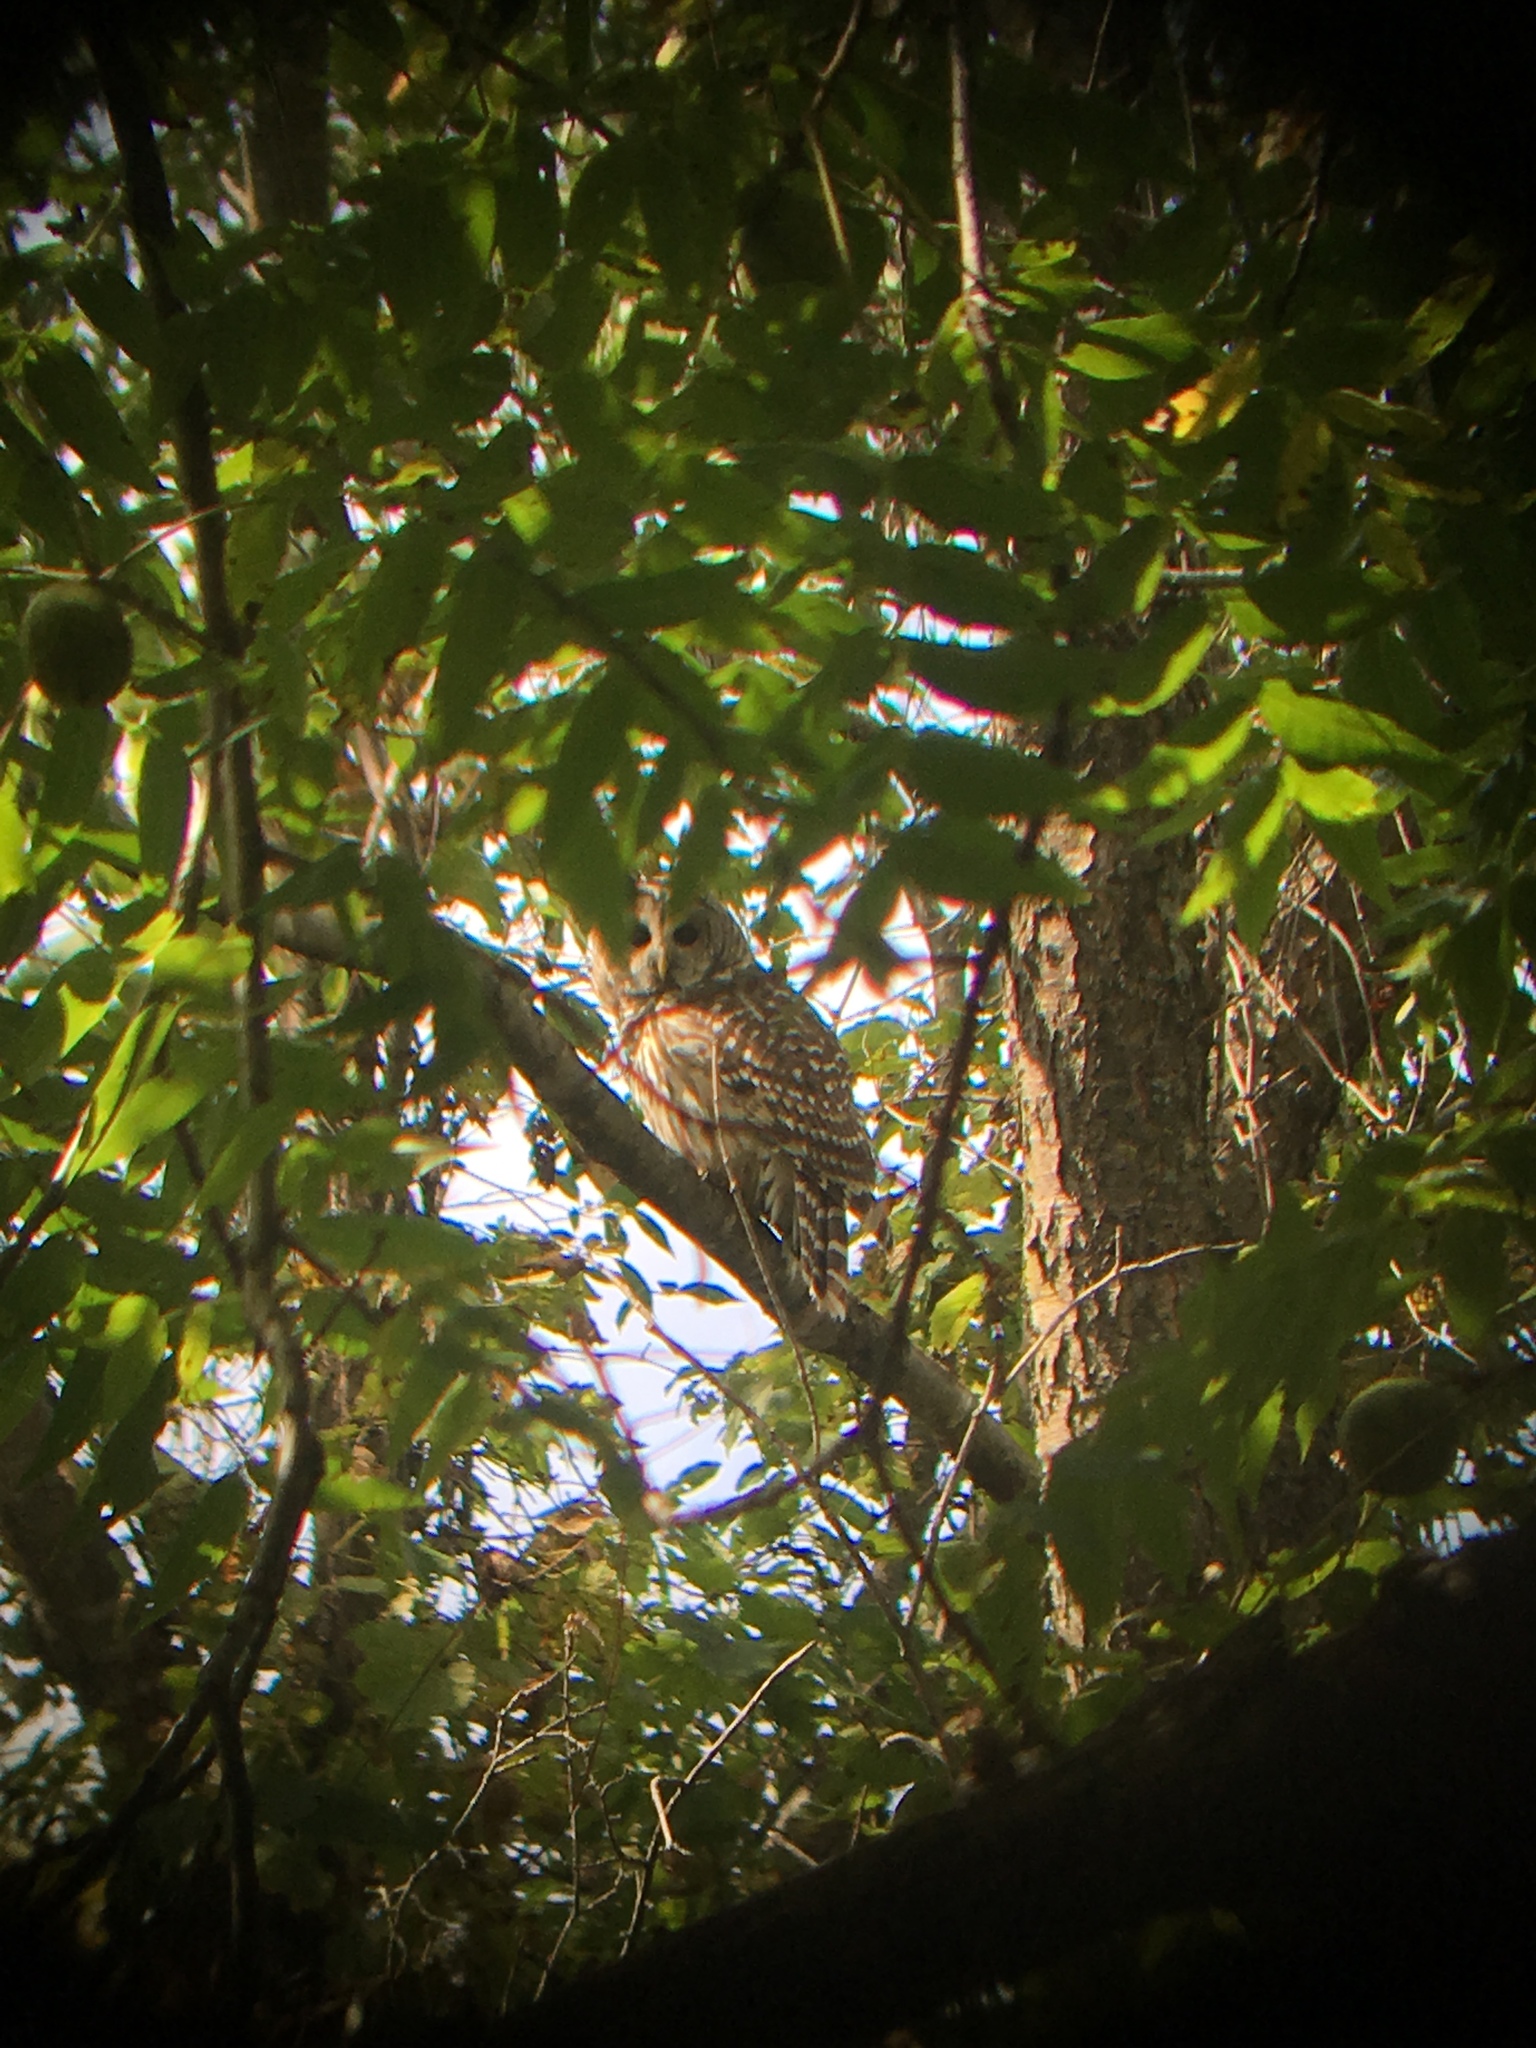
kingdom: Animalia
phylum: Chordata
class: Aves
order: Strigiformes
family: Strigidae
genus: Strix
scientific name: Strix varia
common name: Barred owl
